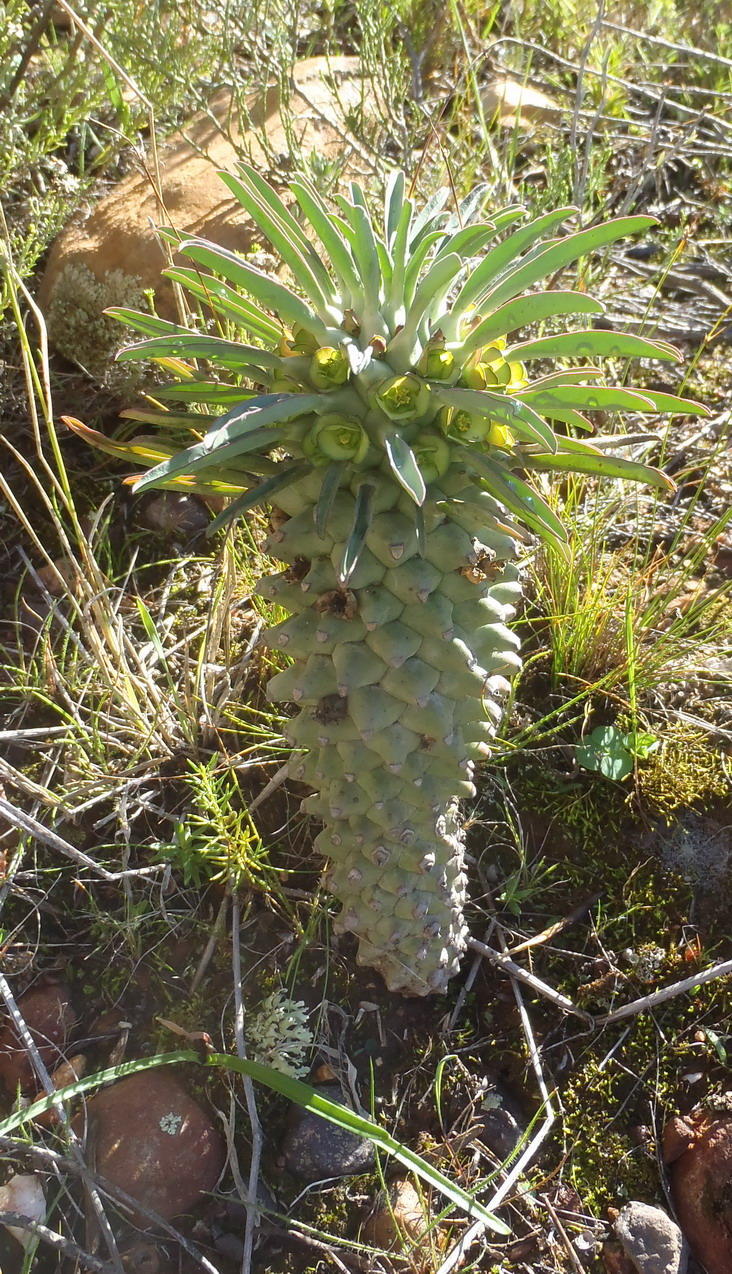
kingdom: Plantae
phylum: Tracheophyta
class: Magnoliopsida
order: Malpighiales
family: Euphorbiaceae
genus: Euphorbia
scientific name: Euphorbia clandestina
